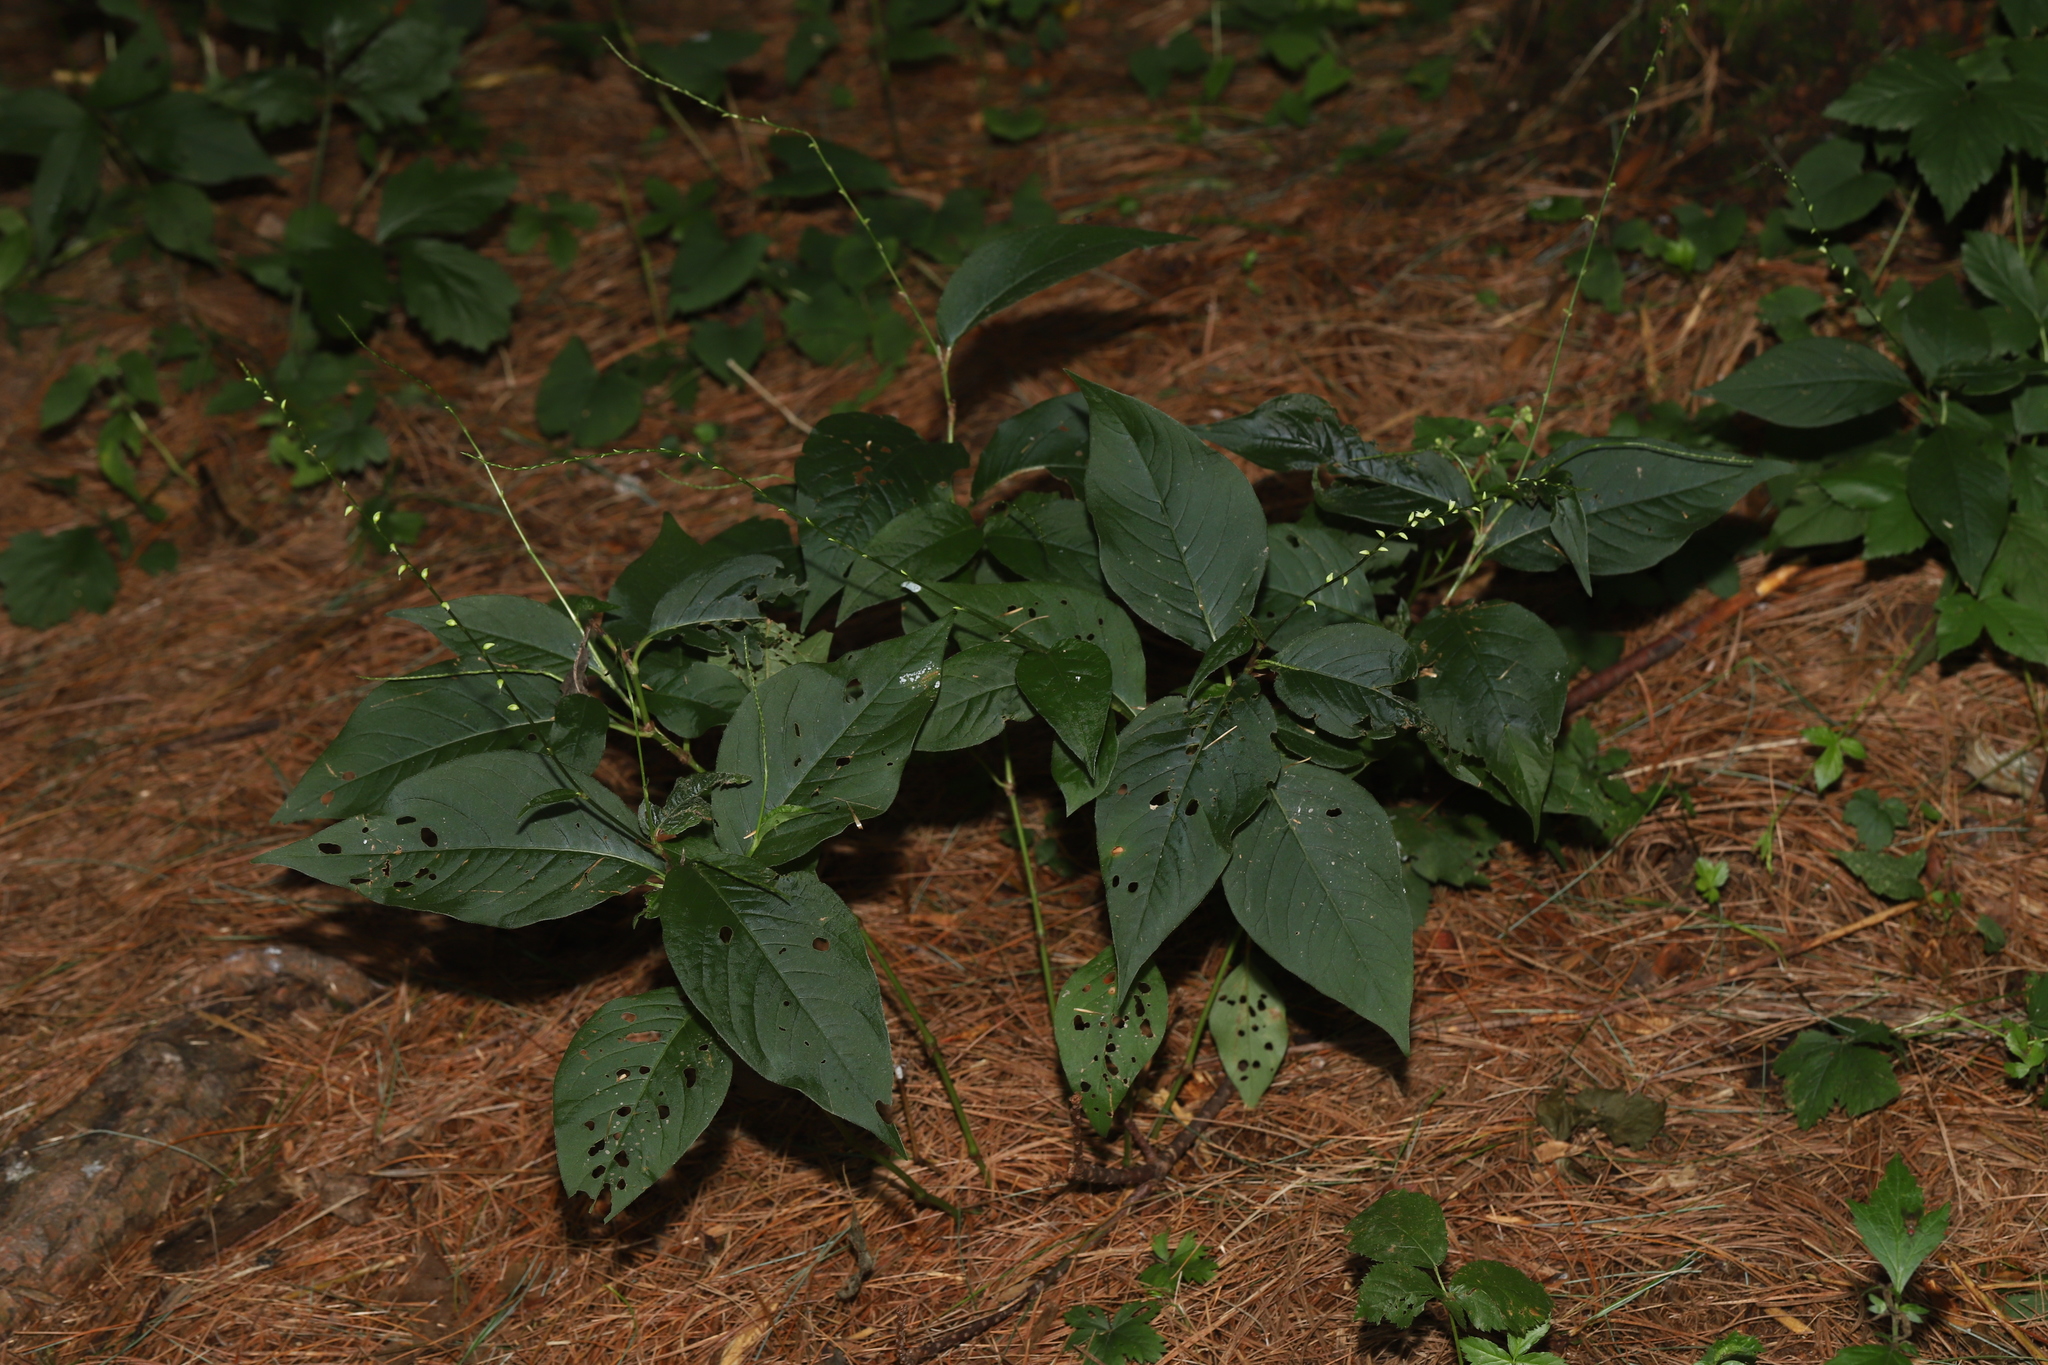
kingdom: Plantae
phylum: Tracheophyta
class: Magnoliopsida
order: Caryophyllales
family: Polygonaceae
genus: Persicaria
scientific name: Persicaria virginiana
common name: Jumpseed
